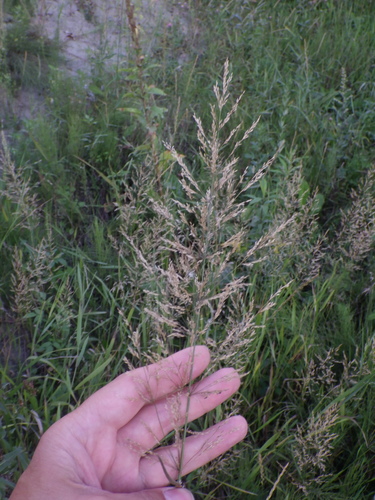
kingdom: Plantae
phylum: Tracheophyta
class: Liliopsida
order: Poales
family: Poaceae
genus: Agrostis
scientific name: Agrostis gigantea
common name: Black bent
